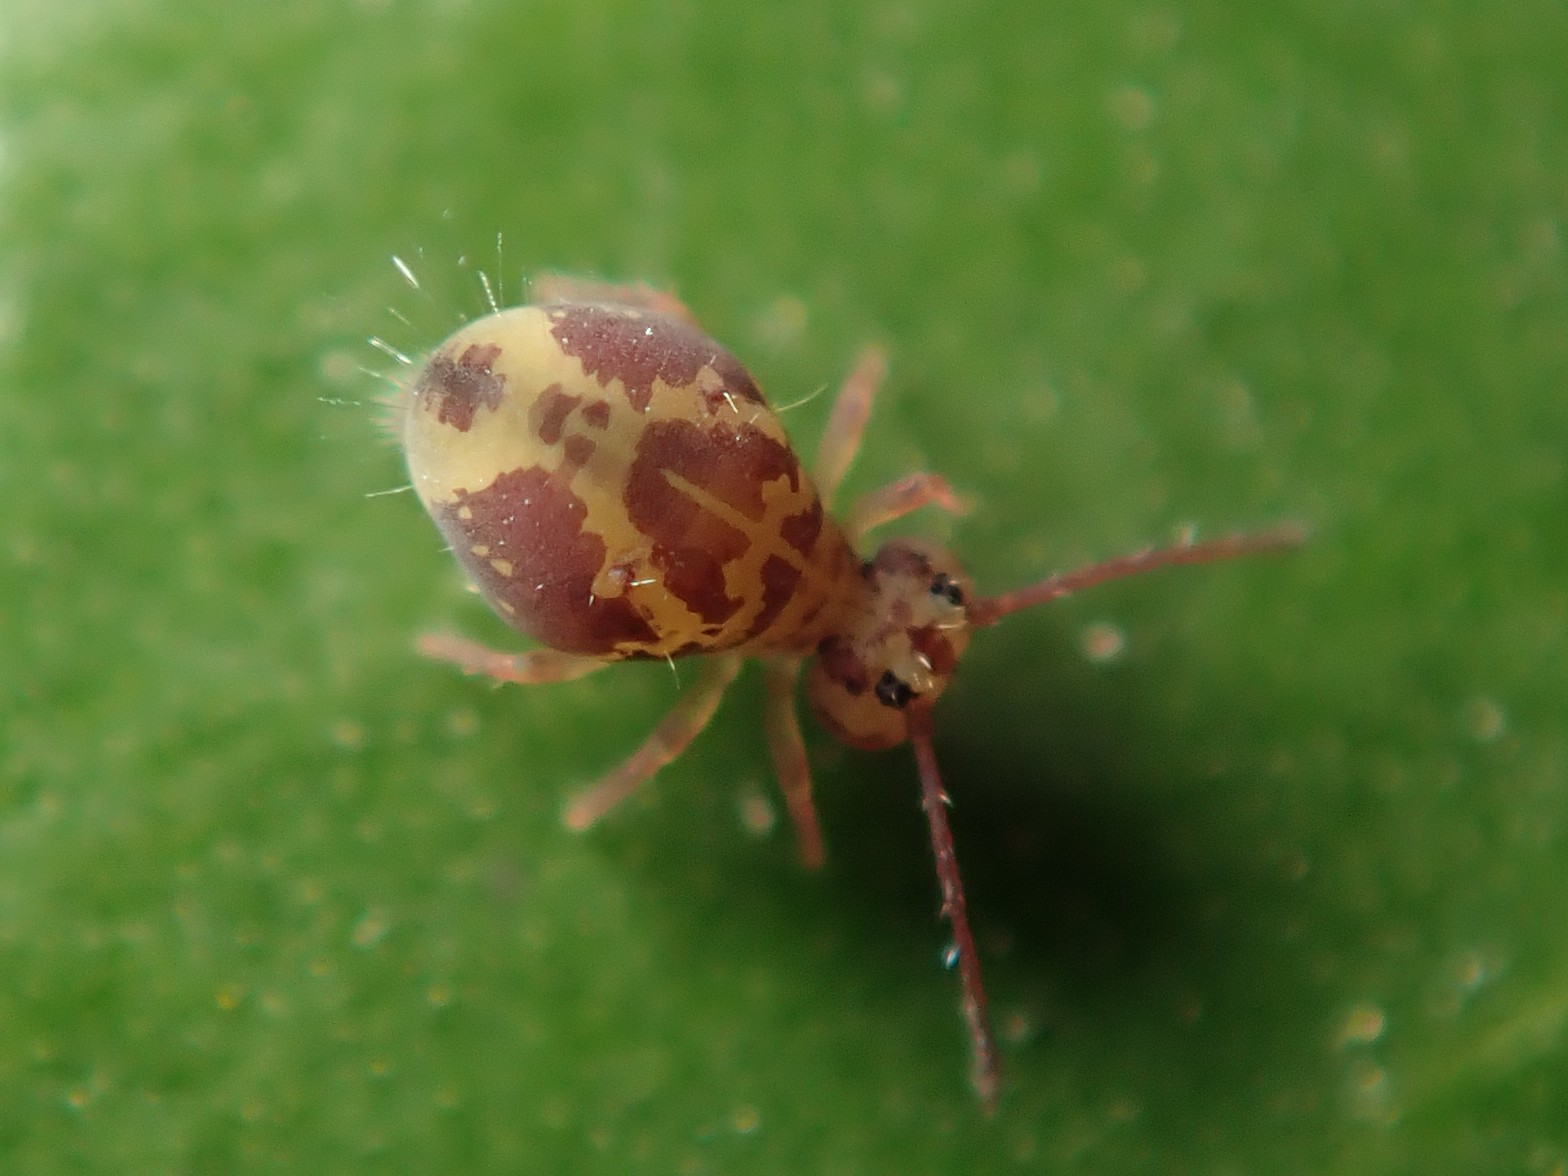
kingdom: Animalia
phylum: Arthropoda
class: Collembola
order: Symphypleona
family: Dicyrtomidae
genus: Dicyrtomina
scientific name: Dicyrtomina ornata
